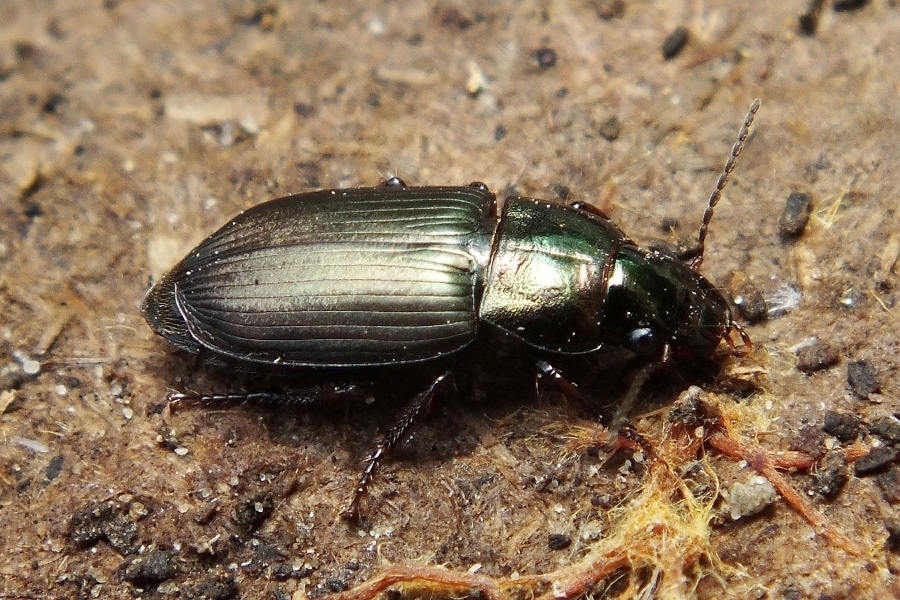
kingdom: Animalia
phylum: Arthropoda
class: Insecta
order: Coleoptera
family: Carabidae
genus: Harpalus
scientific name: Harpalus distinguendus
